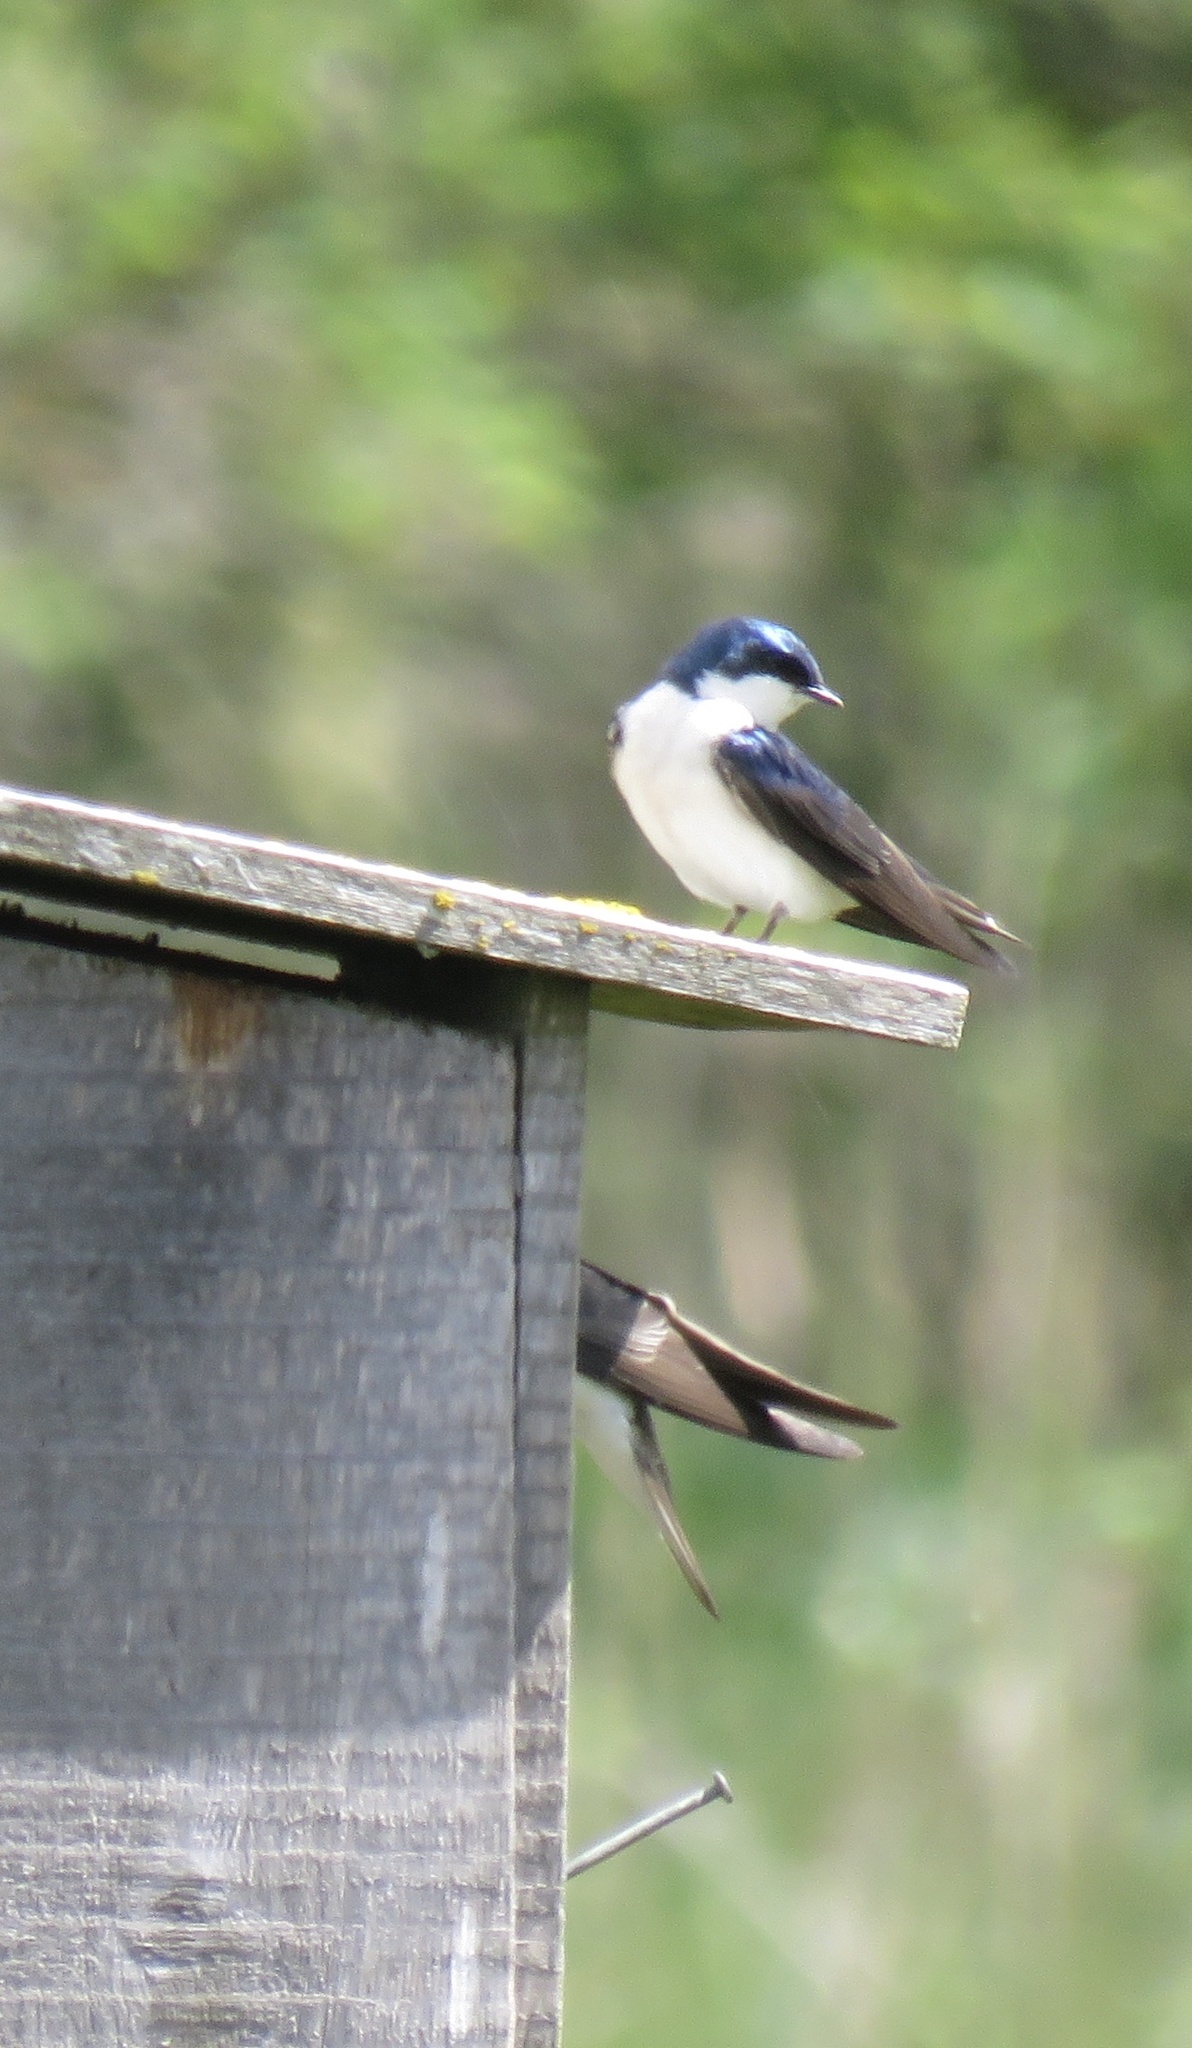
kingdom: Animalia
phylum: Chordata
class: Aves
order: Passeriformes
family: Hirundinidae
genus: Tachycineta
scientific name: Tachycineta bicolor
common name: Tree swallow
